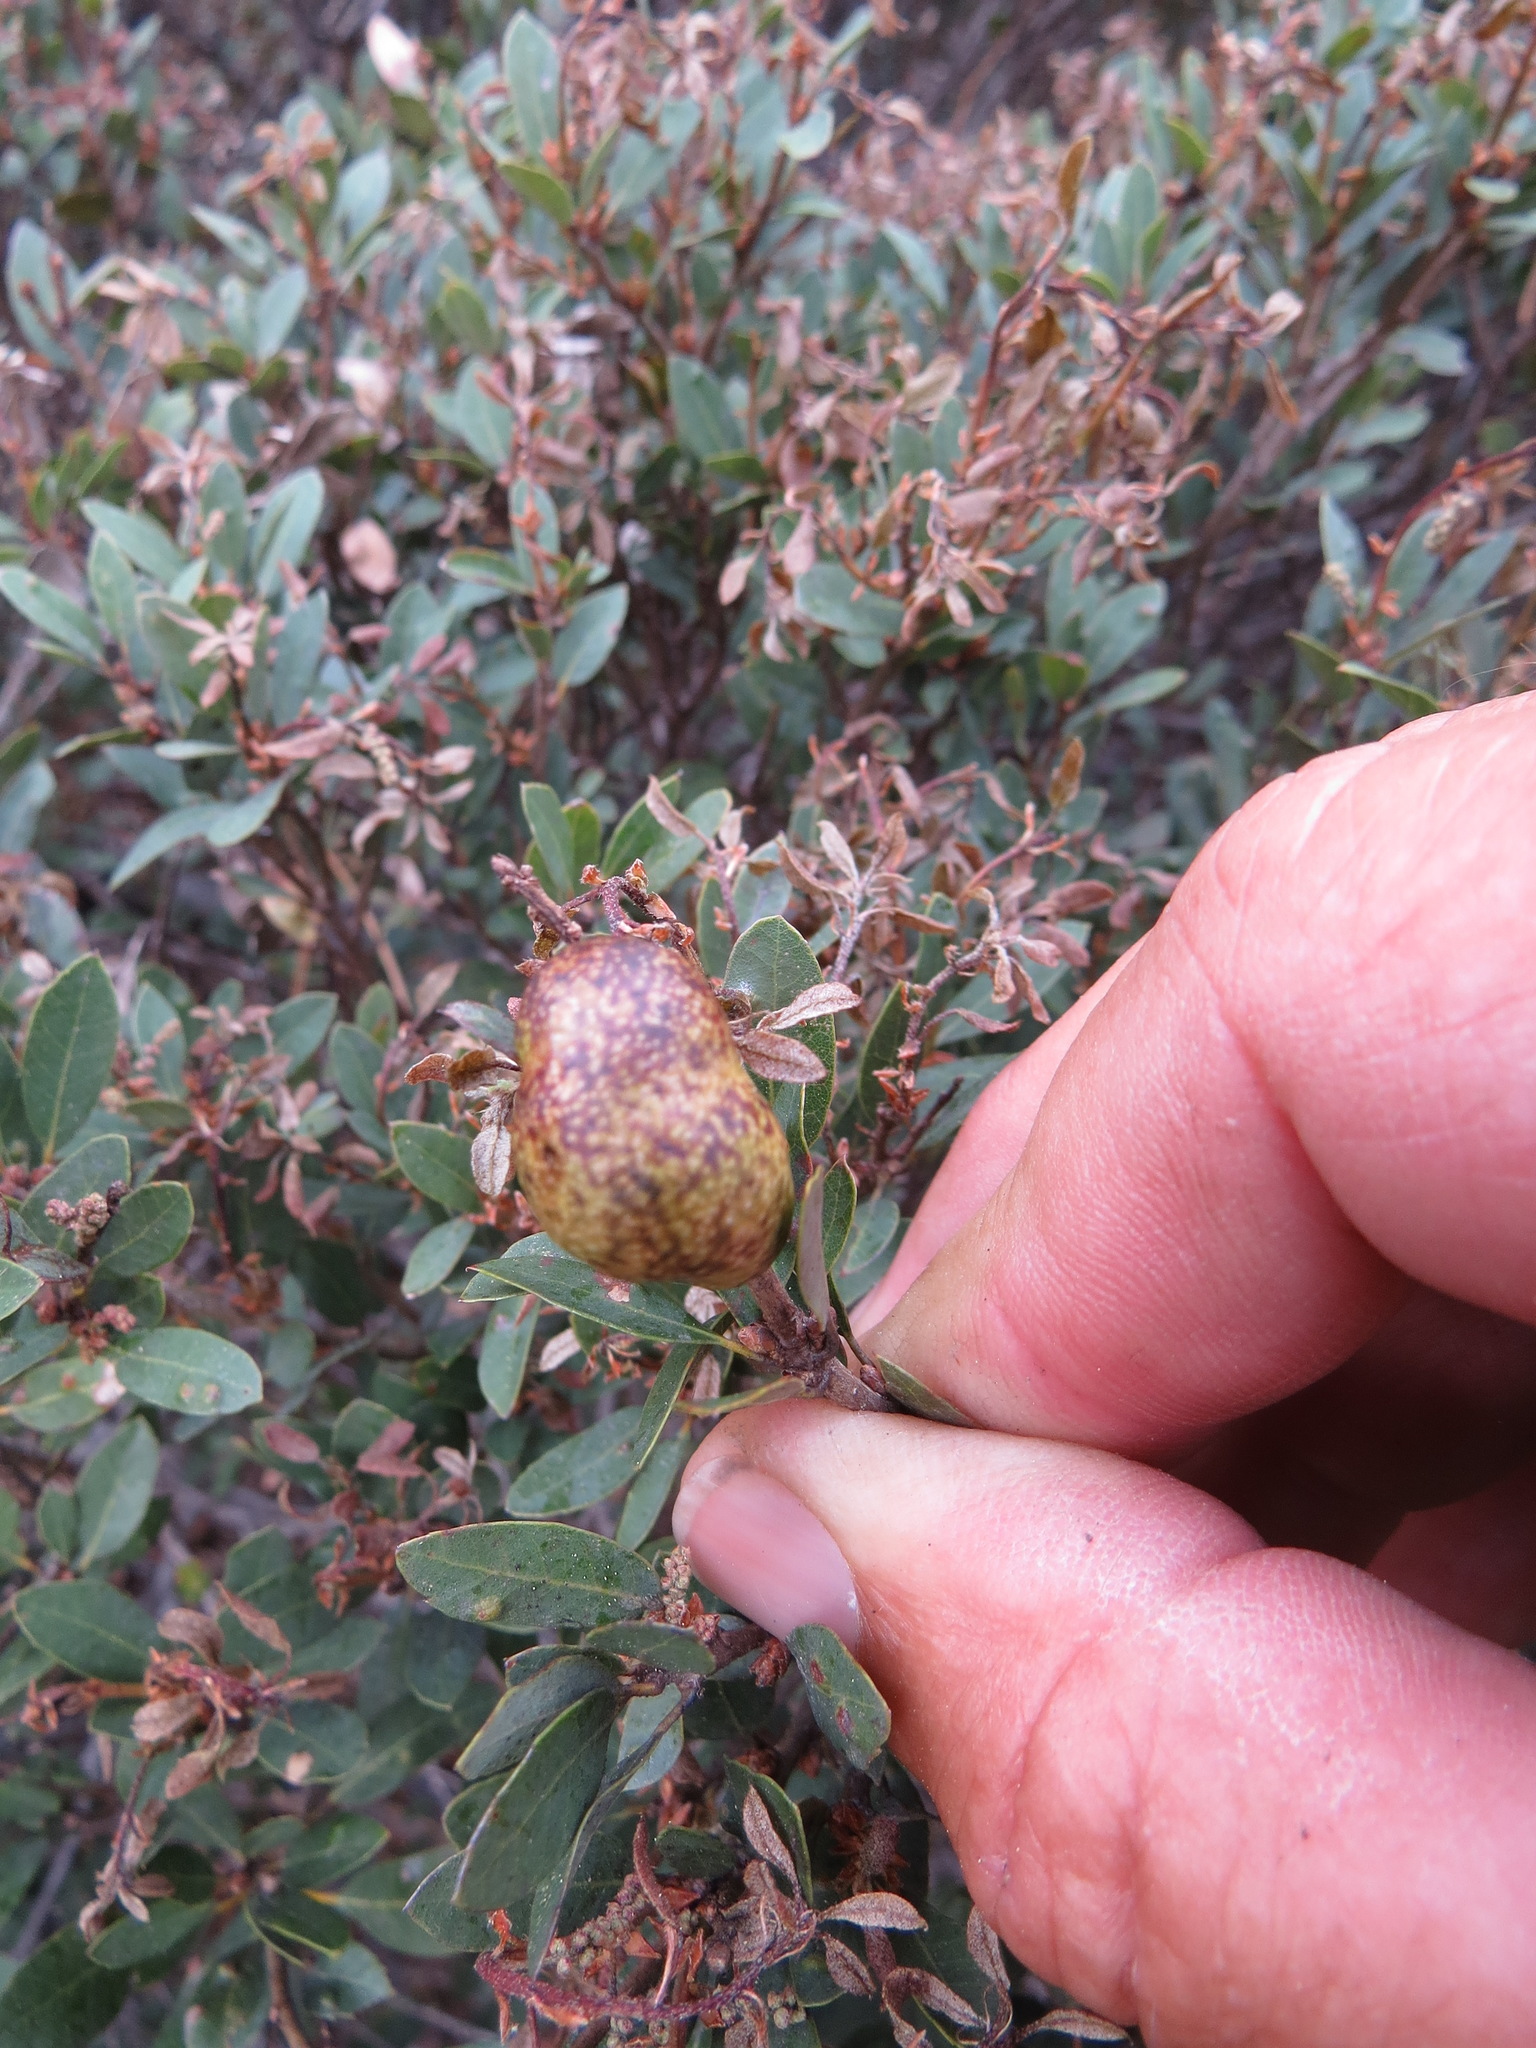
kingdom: Animalia
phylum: Arthropoda
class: Insecta
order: Hymenoptera
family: Cynipidae
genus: Disholandricus
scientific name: Disholandricus
